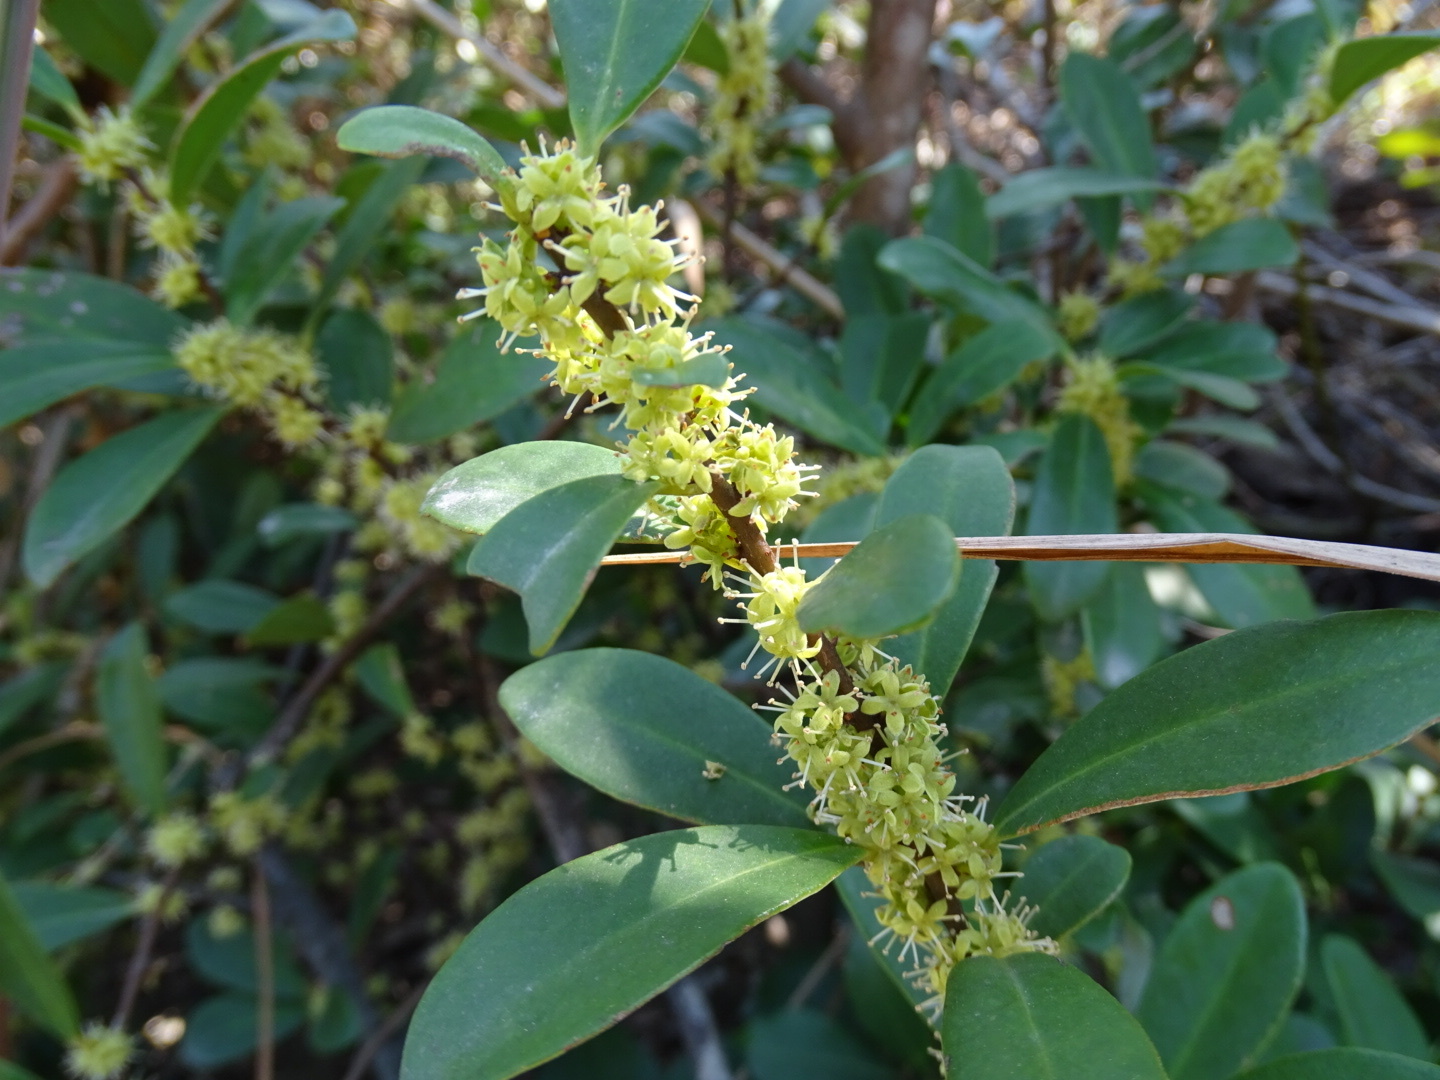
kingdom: Plantae
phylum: Tracheophyta
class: Magnoliopsida
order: Ericales
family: Primulaceae
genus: Embelia
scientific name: Embelia laeta
